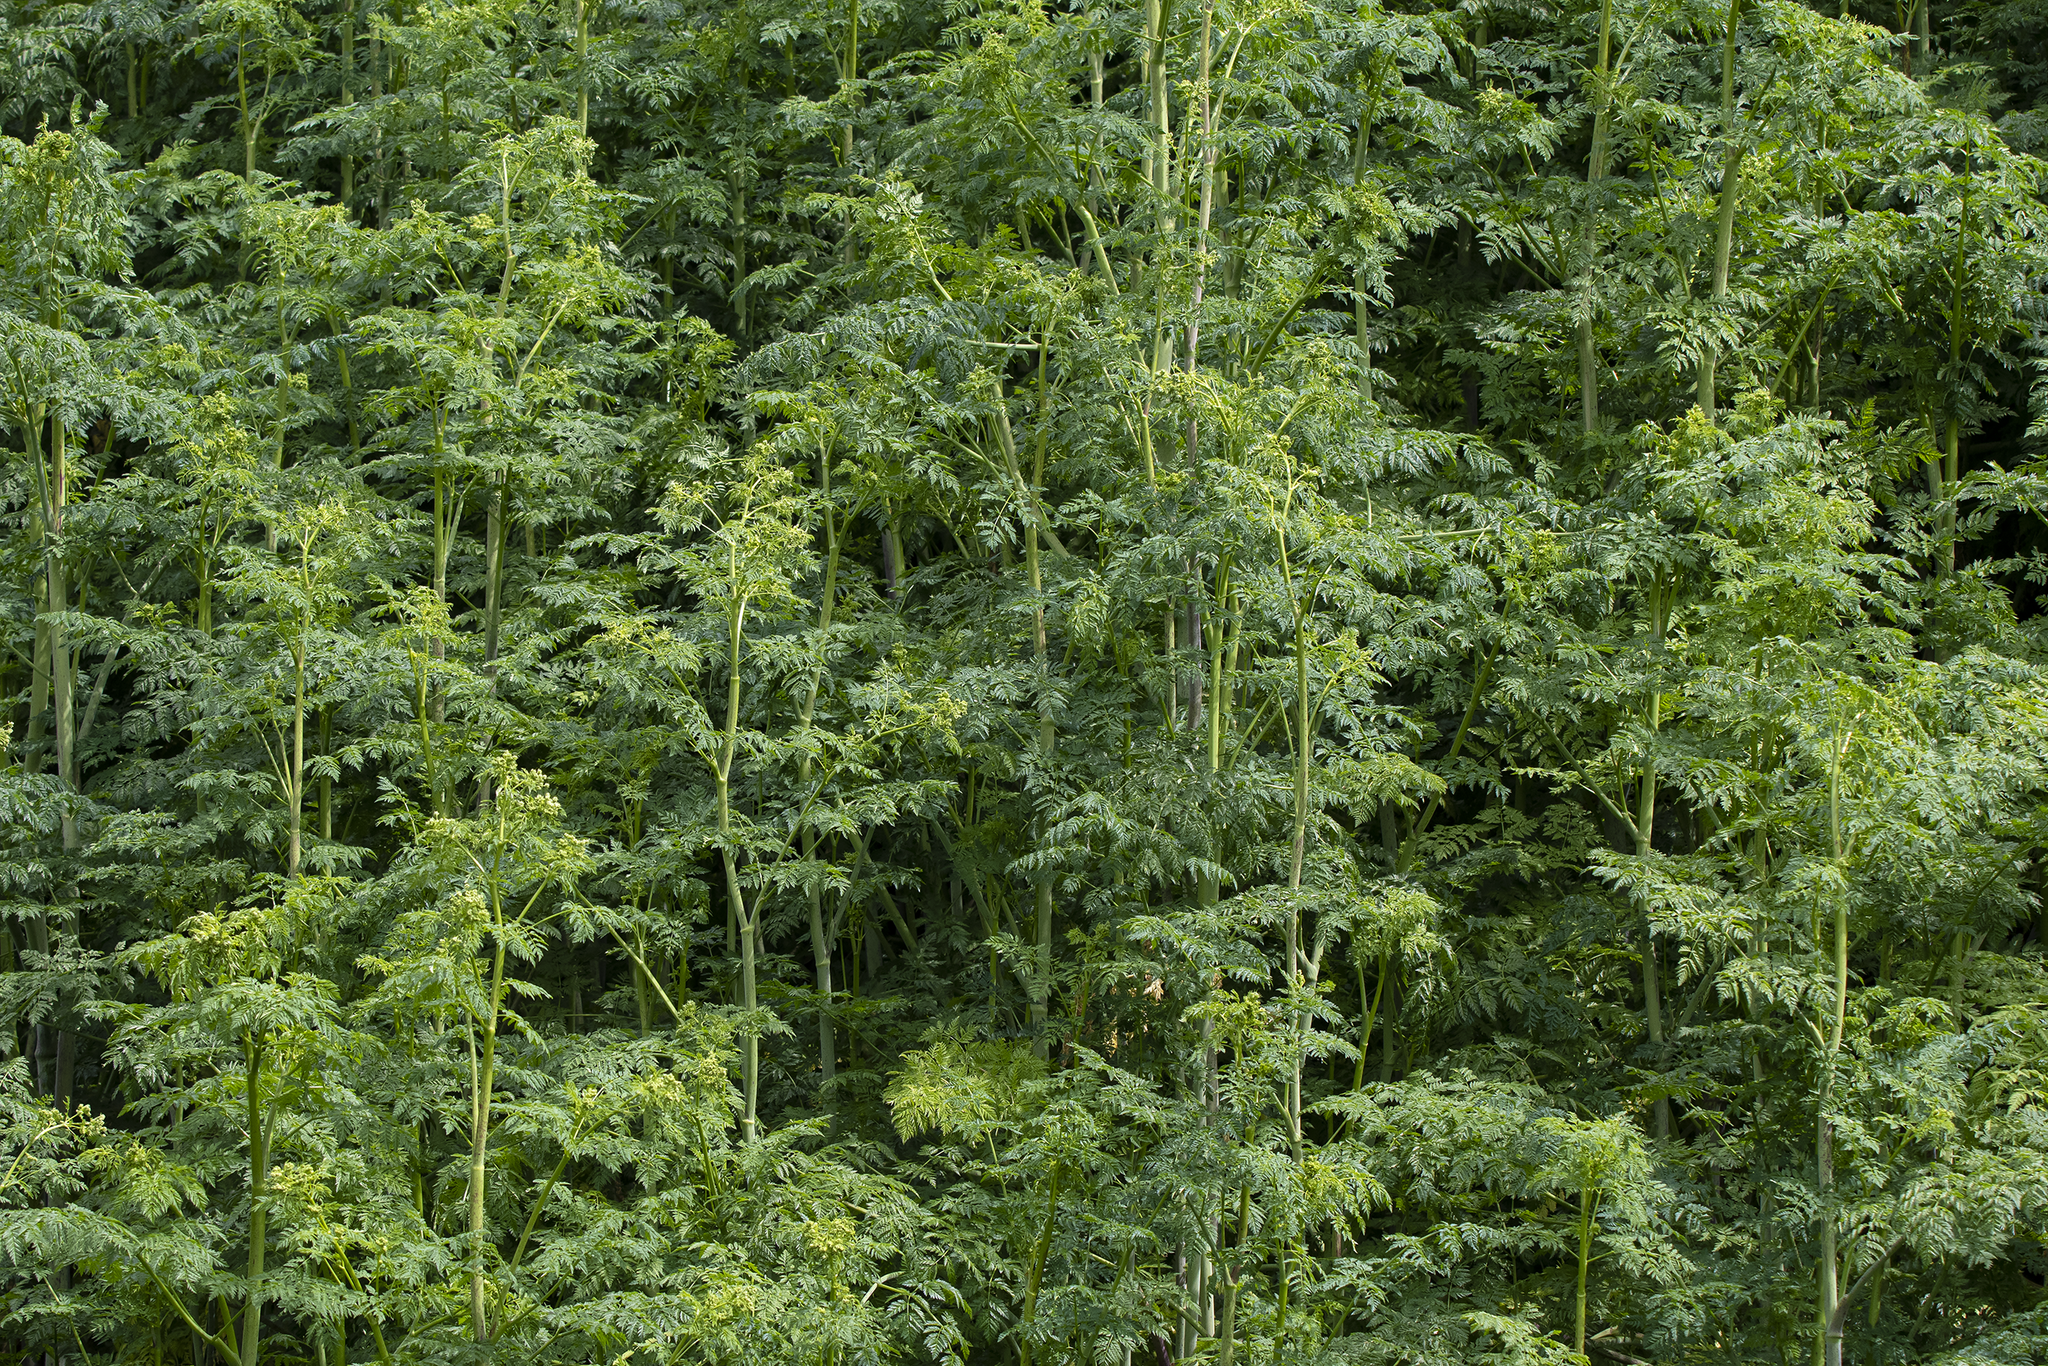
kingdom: Plantae
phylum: Tracheophyta
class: Magnoliopsida
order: Apiales
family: Apiaceae
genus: Conium
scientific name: Conium maculatum
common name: Hemlock
